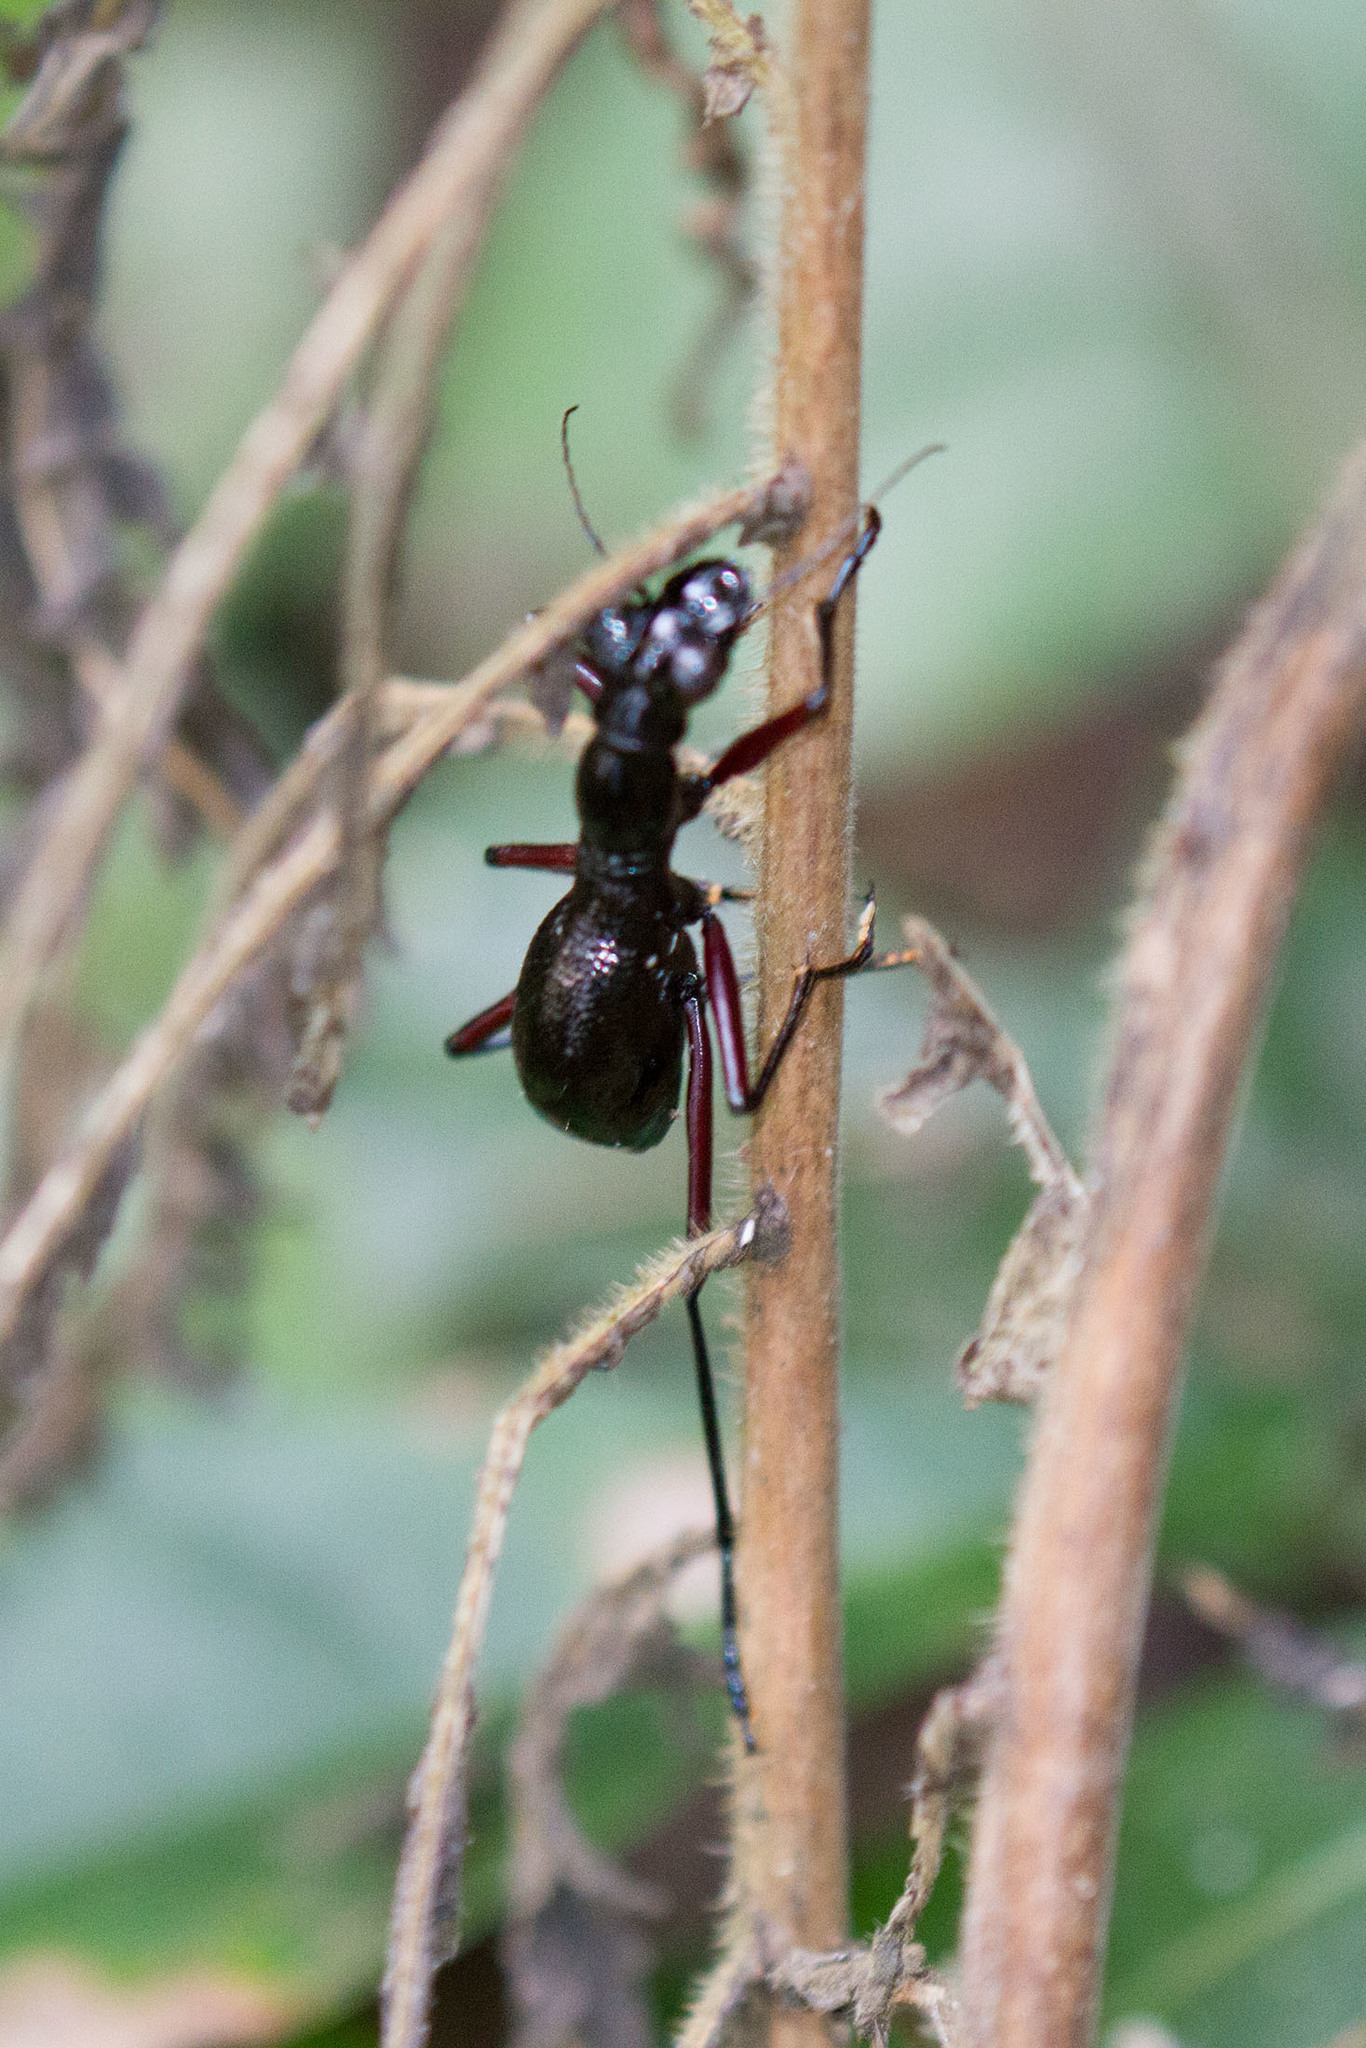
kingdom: Animalia
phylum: Arthropoda
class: Insecta
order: Coleoptera
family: Carabidae
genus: Tricondyla
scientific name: Tricondyla aptera
